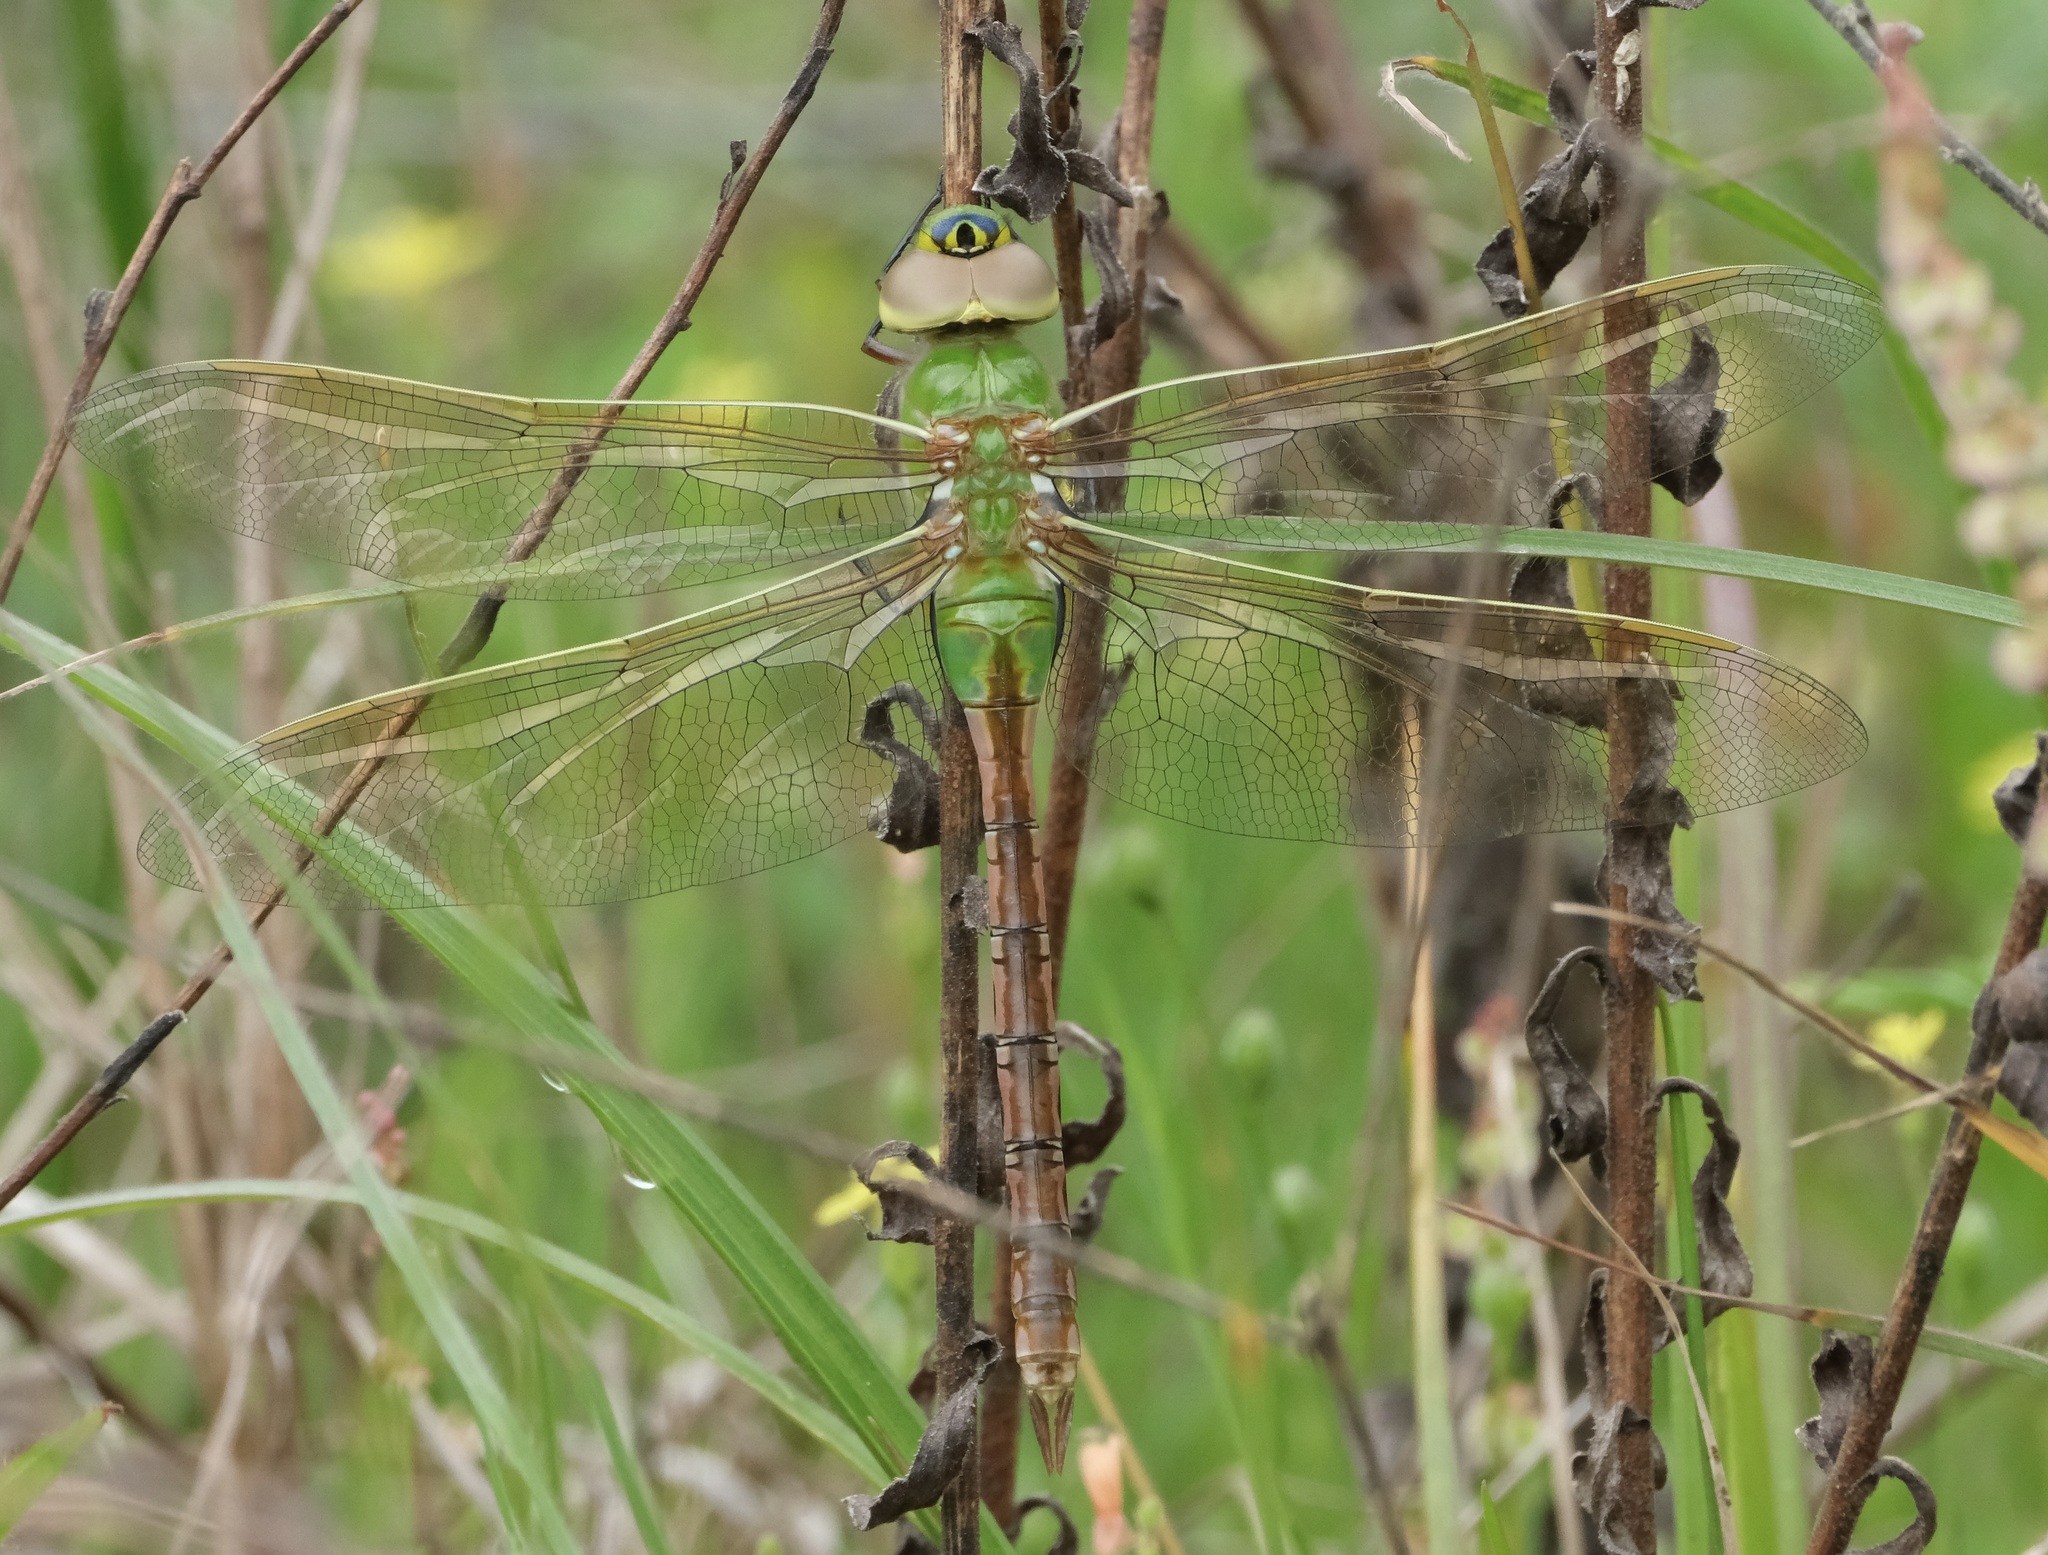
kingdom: Animalia
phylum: Arthropoda
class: Insecta
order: Odonata
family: Aeshnidae
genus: Anax
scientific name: Anax junius
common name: Common green darner
